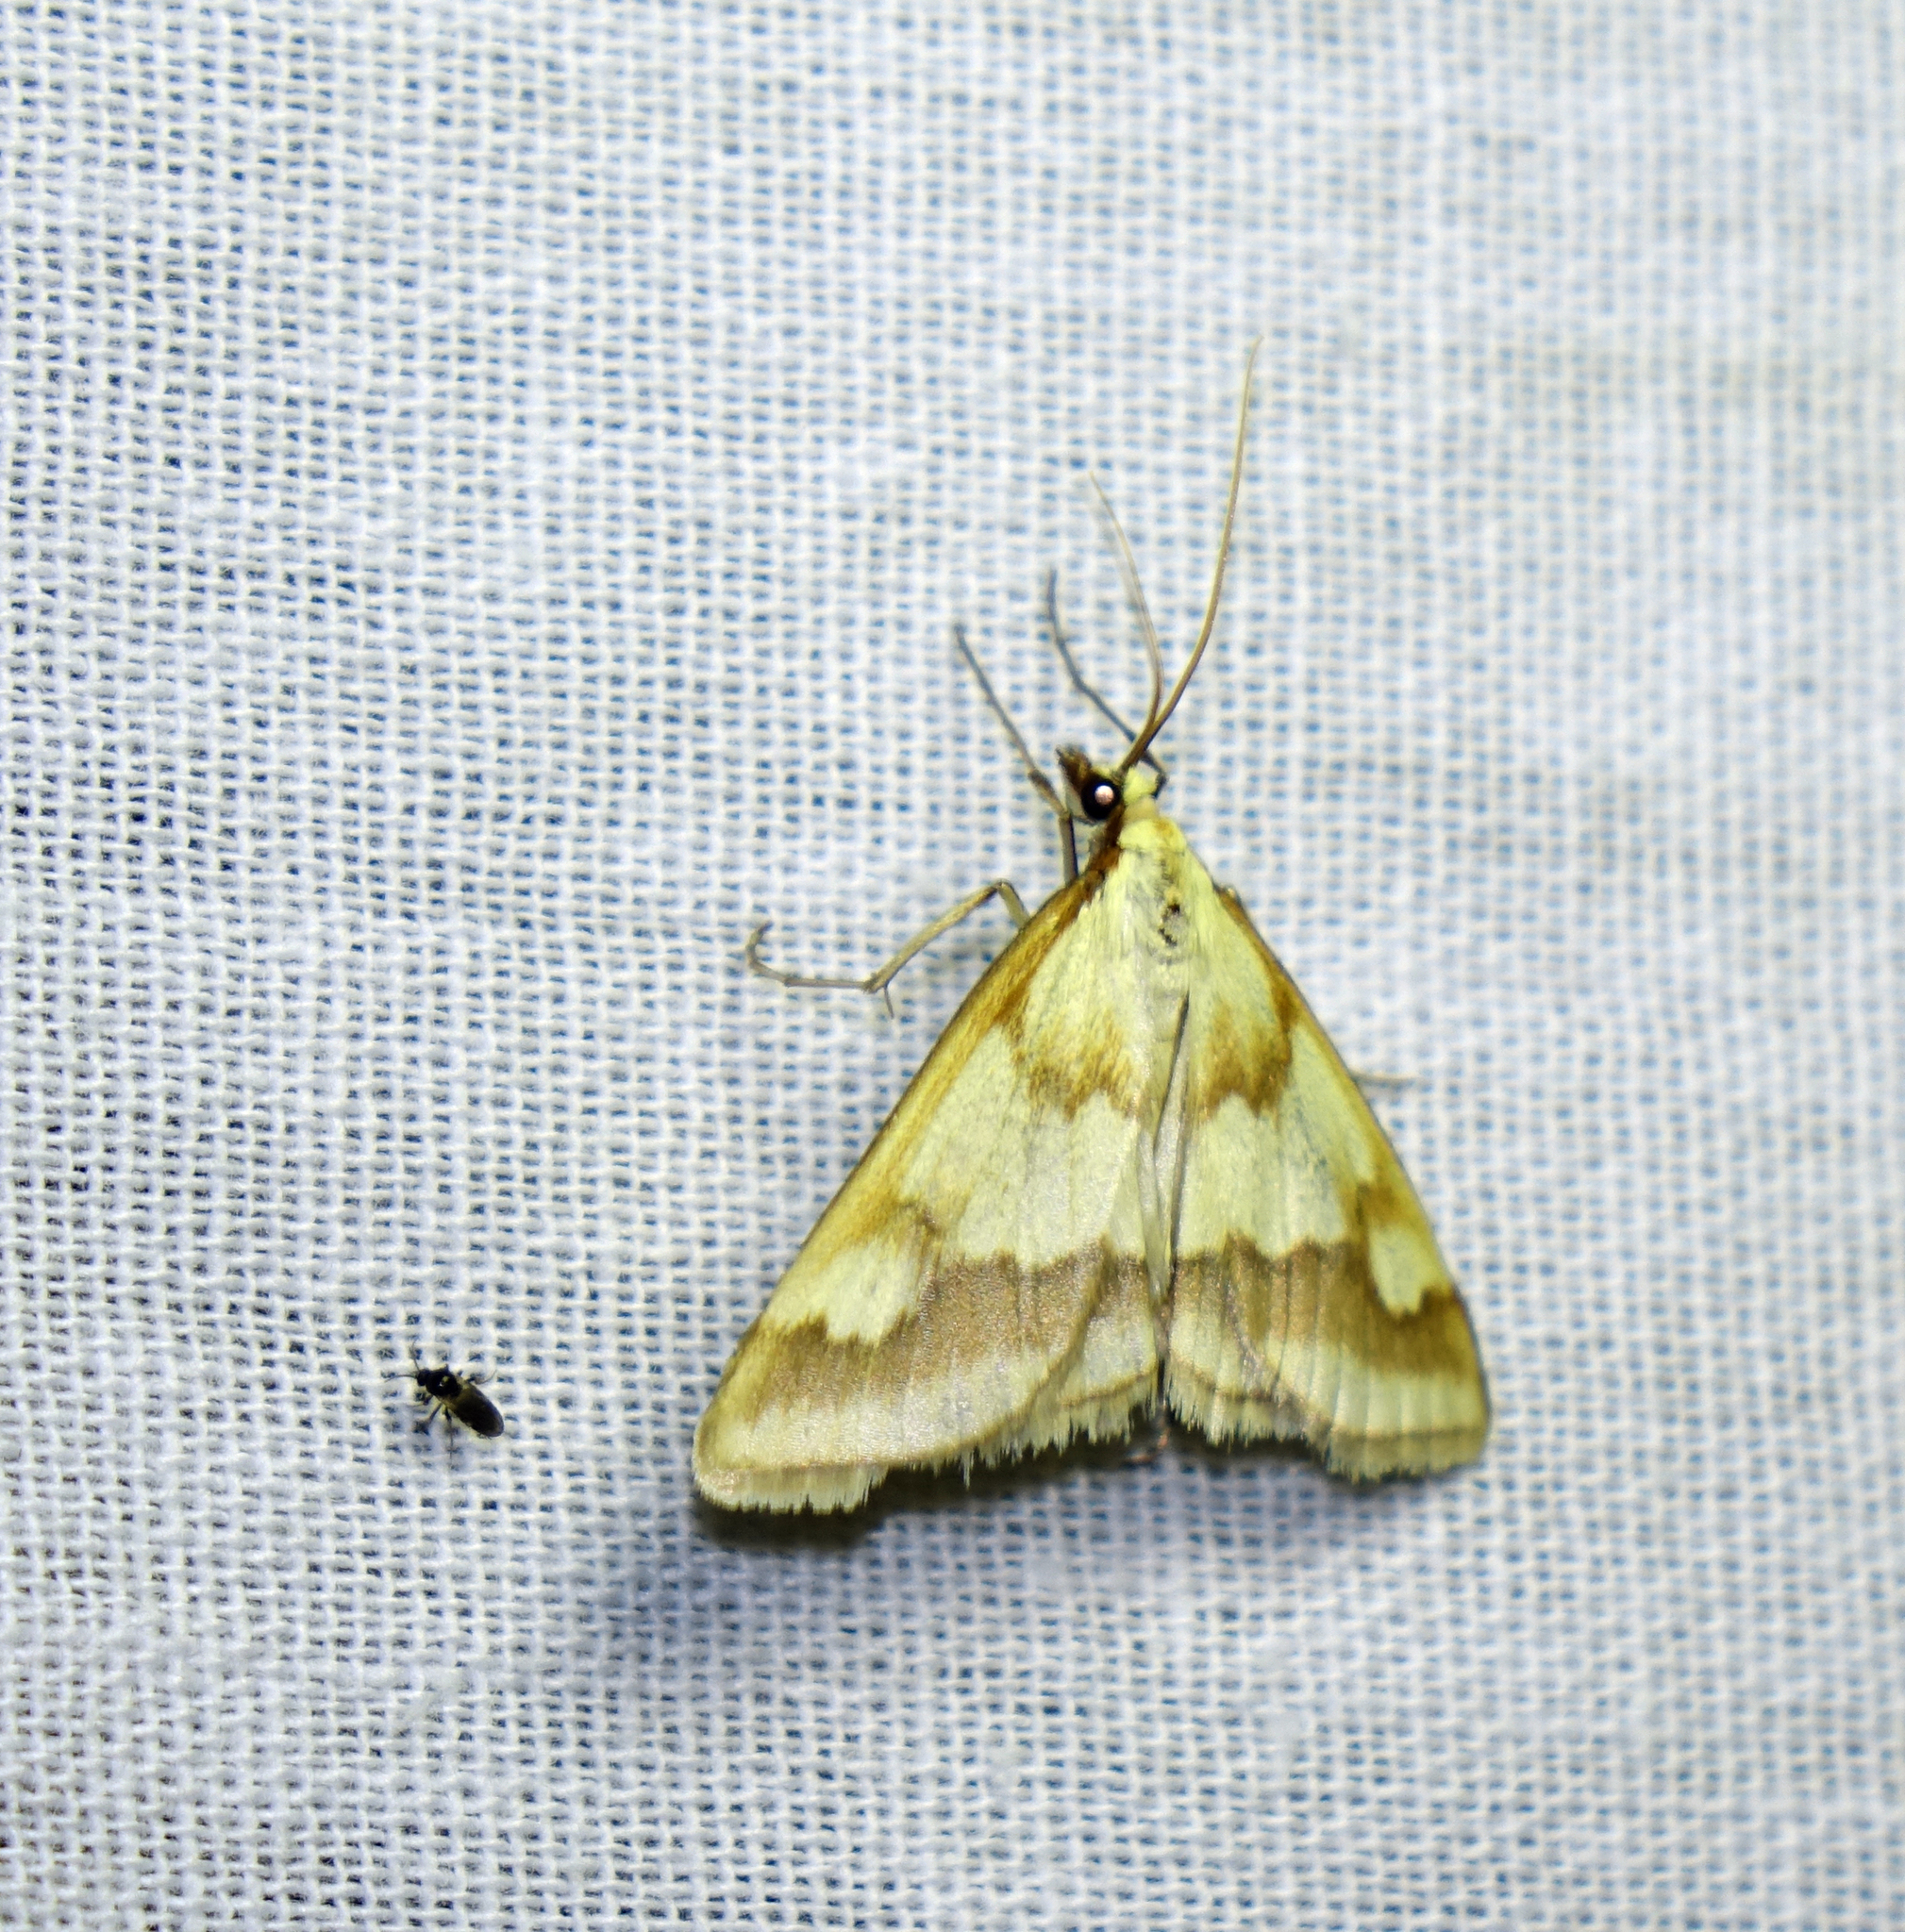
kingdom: Animalia
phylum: Arthropoda
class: Insecta
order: Lepidoptera
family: Crambidae
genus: Ephelis
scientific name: Ephelis cruentalis
